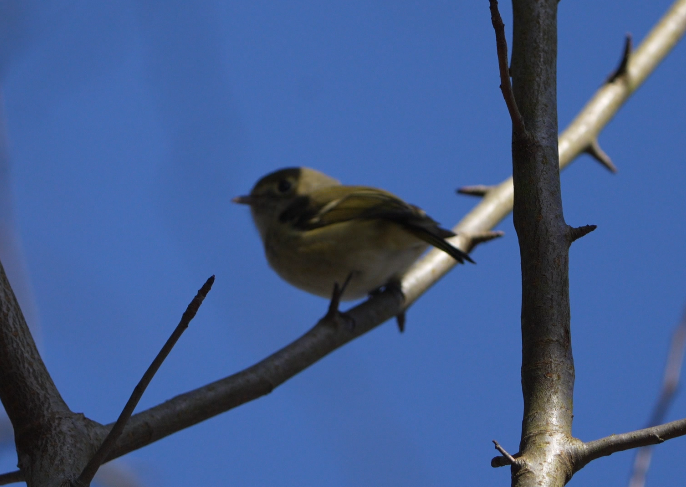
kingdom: Animalia
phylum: Chordata
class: Aves
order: Passeriformes
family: Vireonidae
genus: Vireo
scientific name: Vireo huttoni
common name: Hutton's vireo
